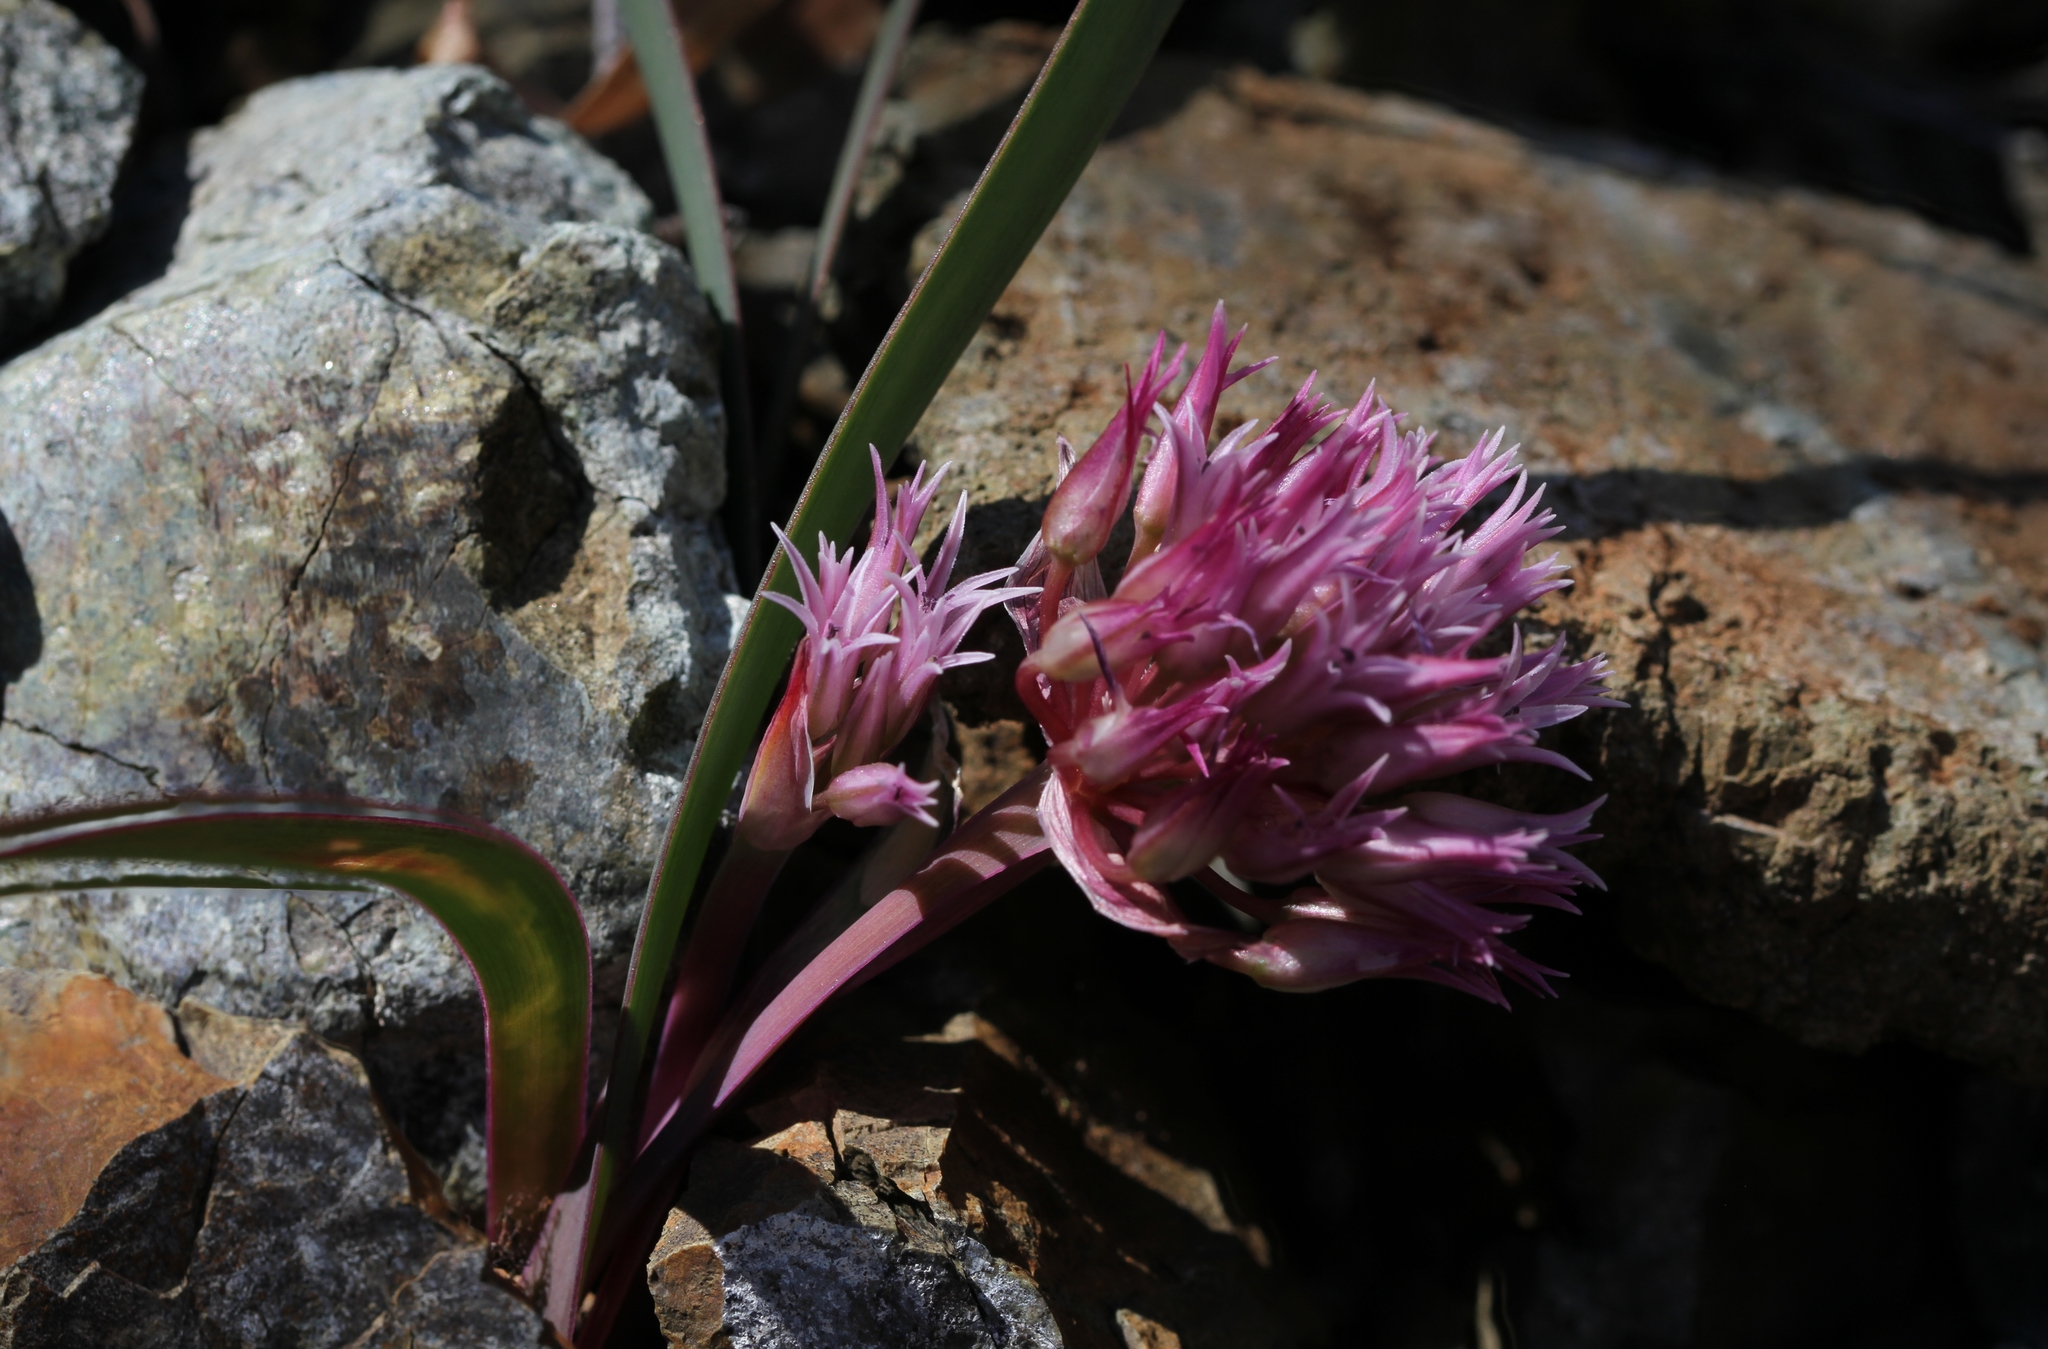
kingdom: Plantae
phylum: Tracheophyta
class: Liliopsida
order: Asparagales
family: Amaryllidaceae
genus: Allium
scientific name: Allium falcifolium
